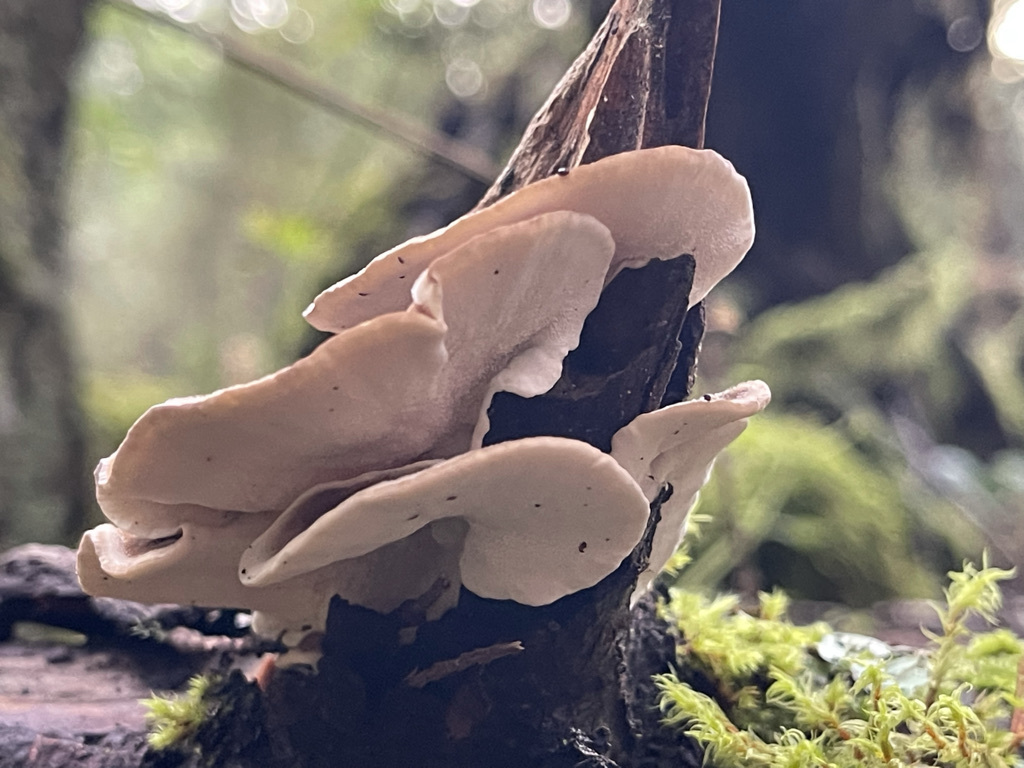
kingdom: Fungi
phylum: Basidiomycota
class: Agaricomycetes
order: Polyporales
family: Polyporaceae
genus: Trametes
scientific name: Trametes versicolor
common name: Turkeytail
